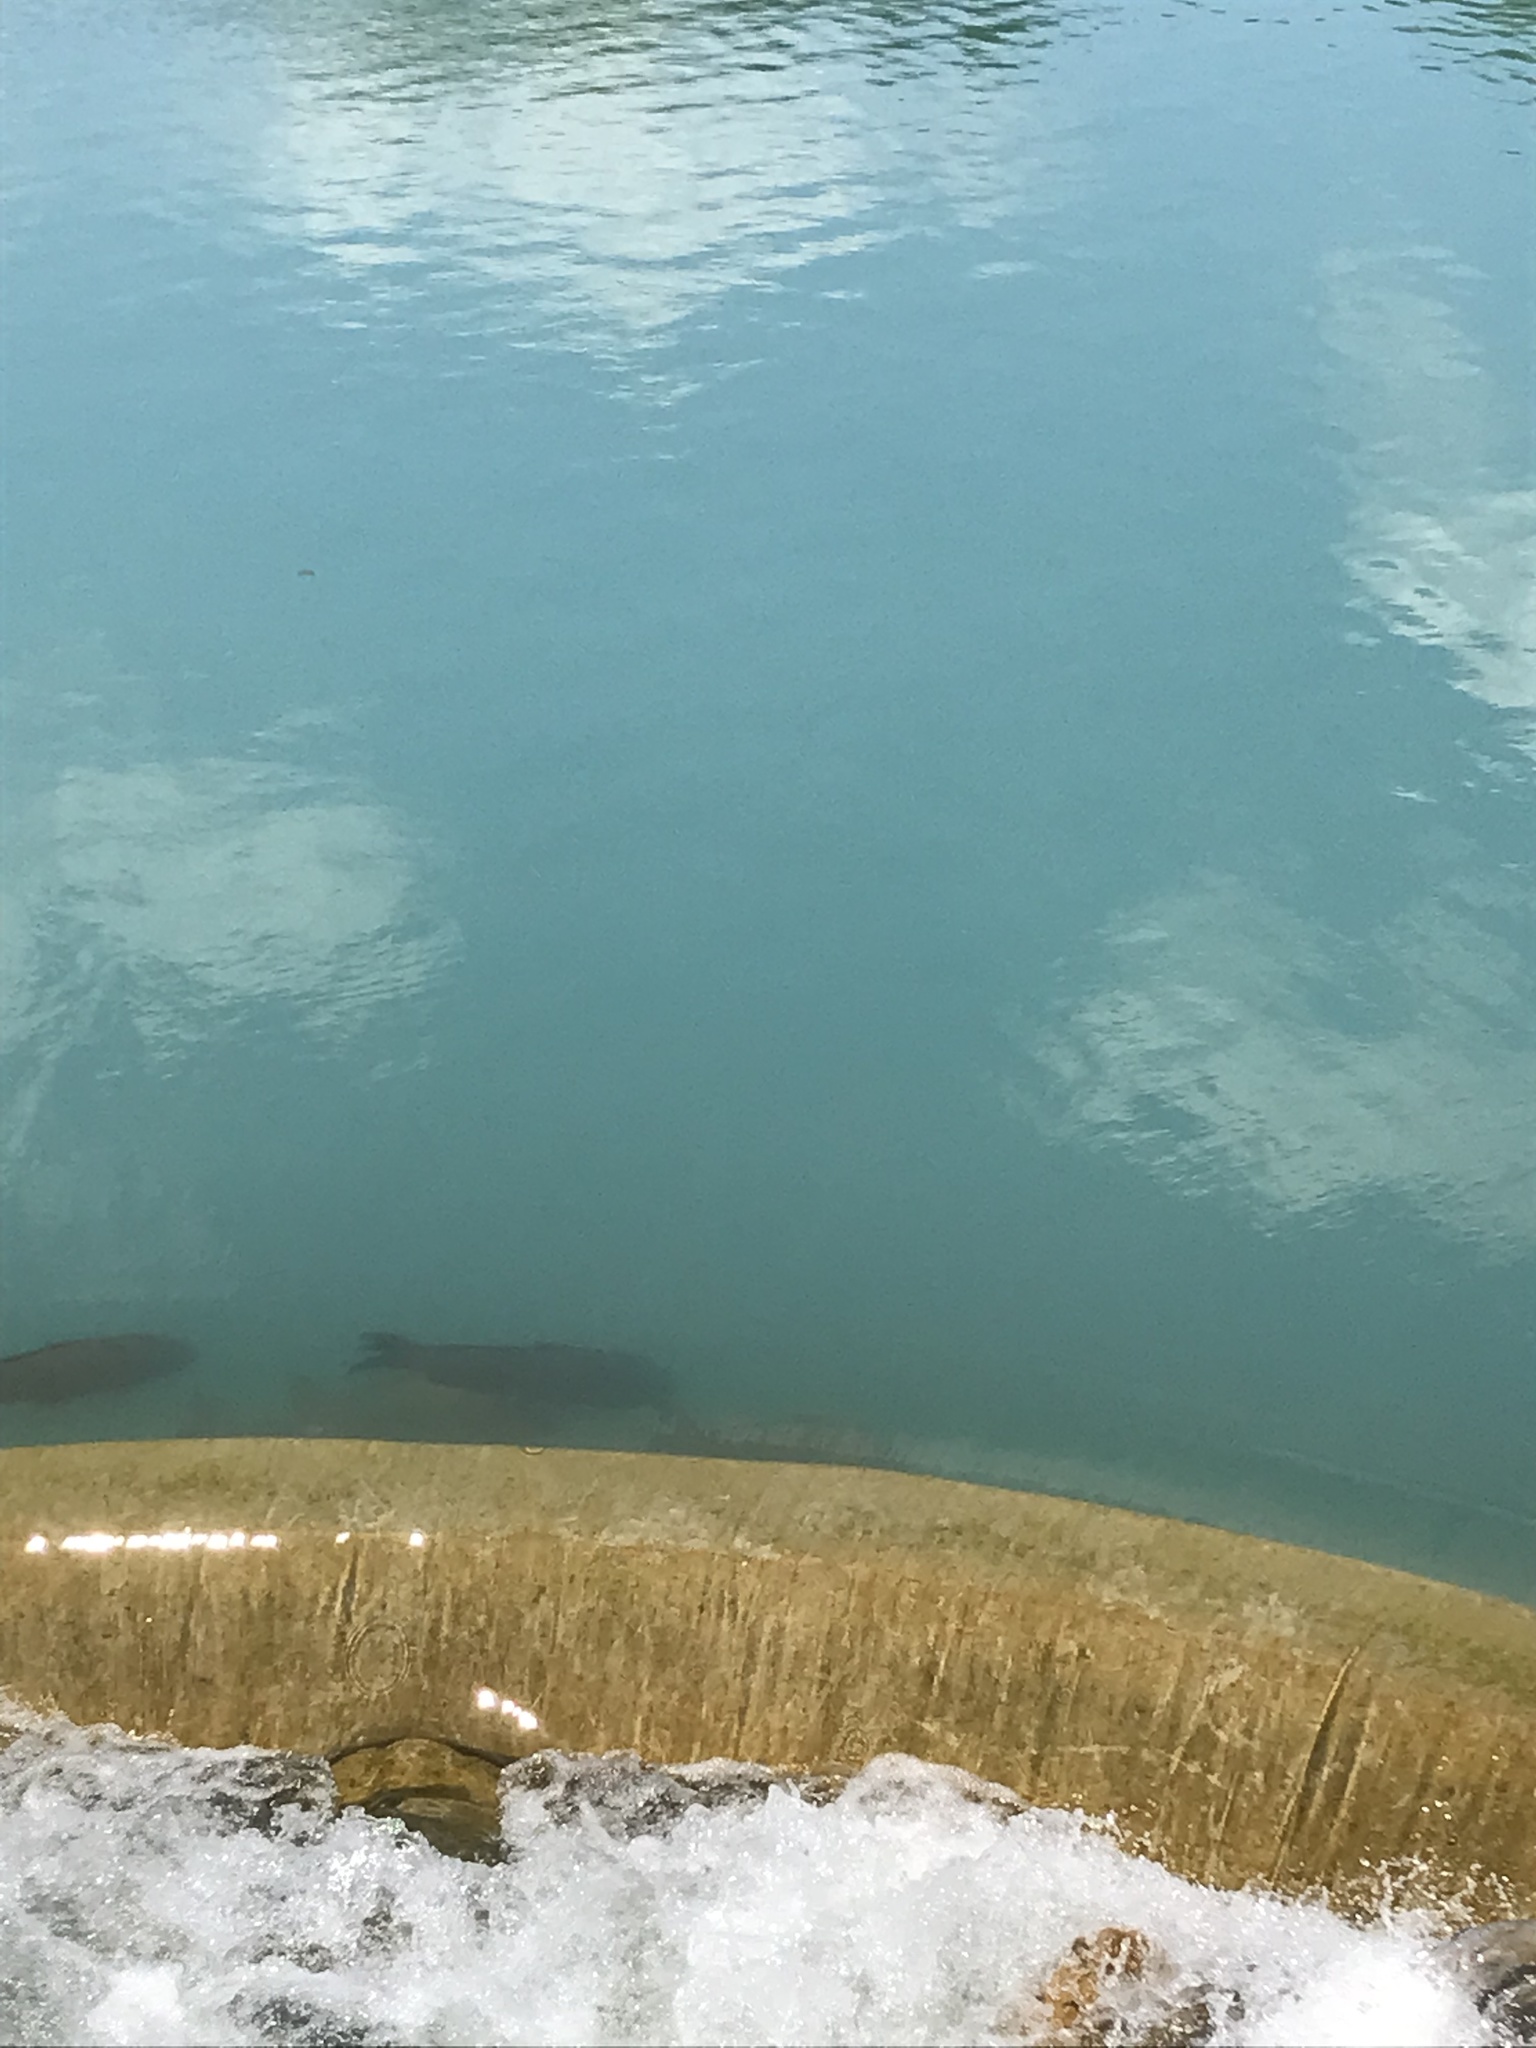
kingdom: Animalia
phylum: Chordata
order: Cypriniformes
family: Cyprinidae
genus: Cyprinus
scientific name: Cyprinus carpio
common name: Common carp
